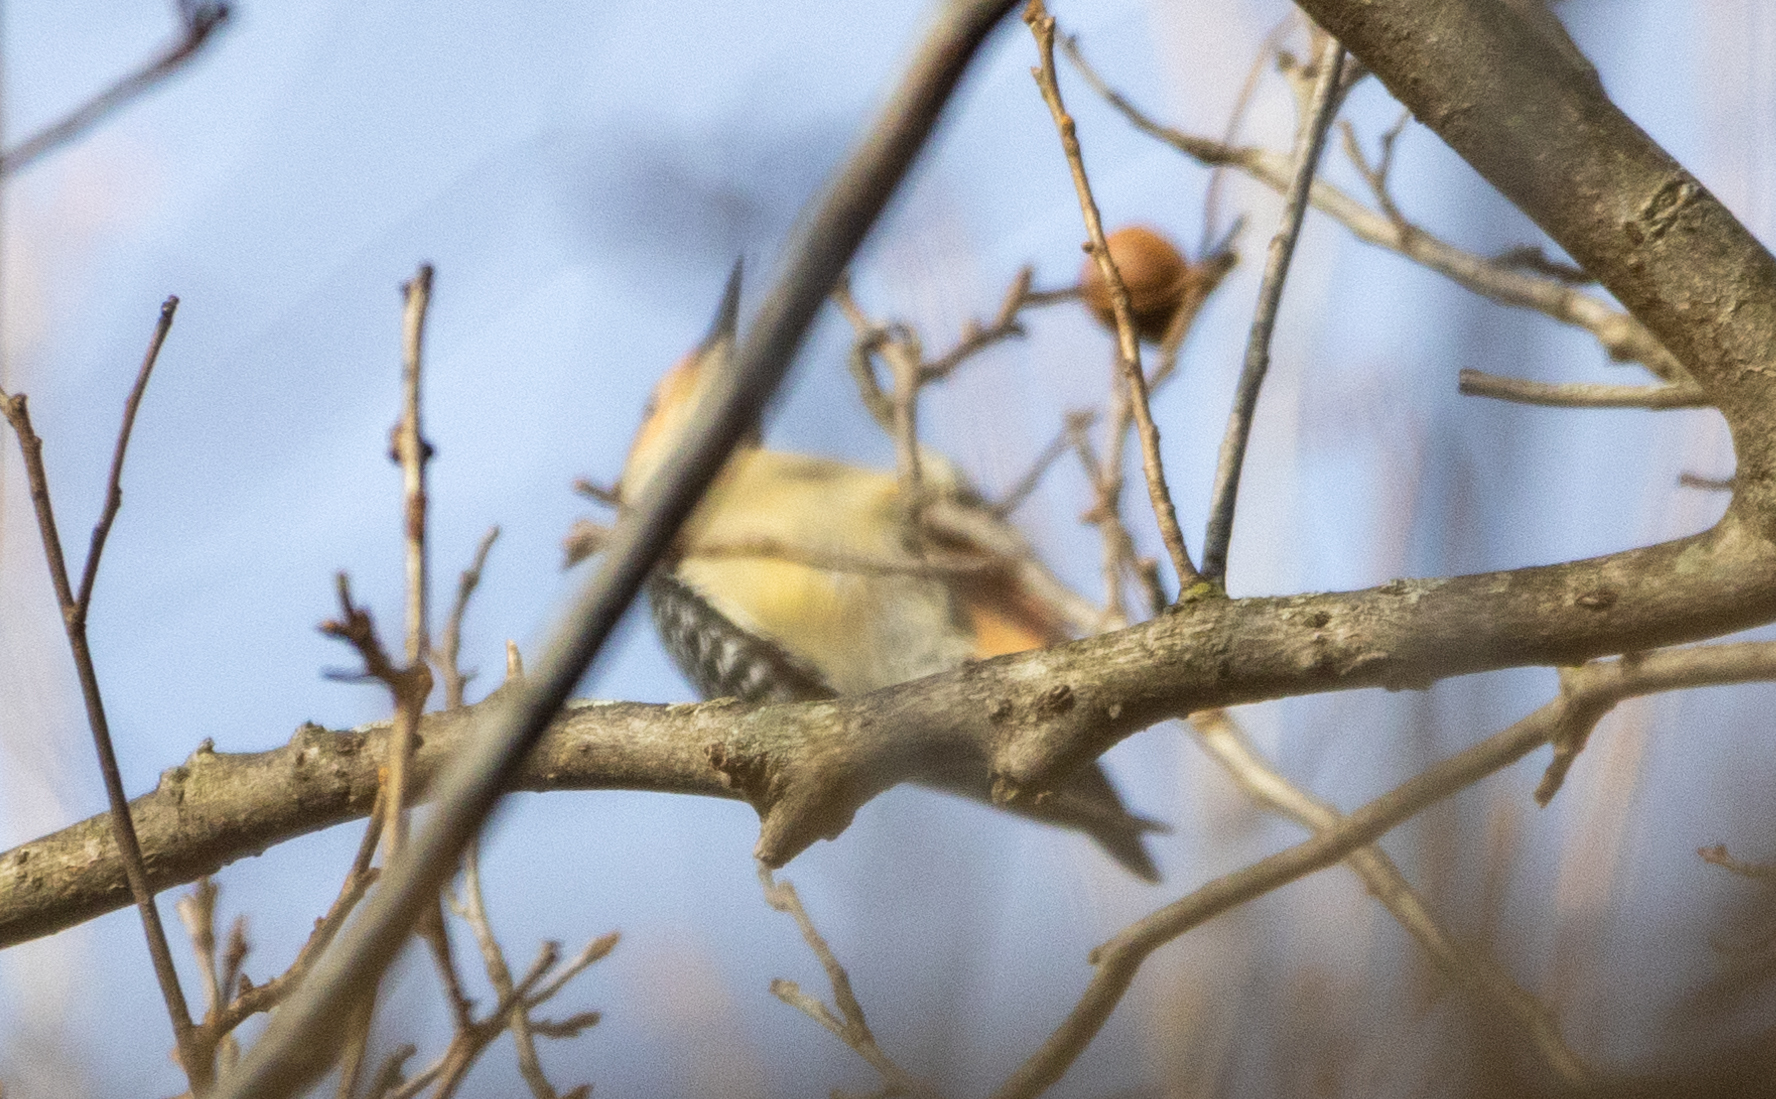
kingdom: Animalia
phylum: Chordata
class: Aves
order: Piciformes
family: Picidae
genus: Melanerpes
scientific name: Melanerpes carolinus
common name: Red-bellied woodpecker
